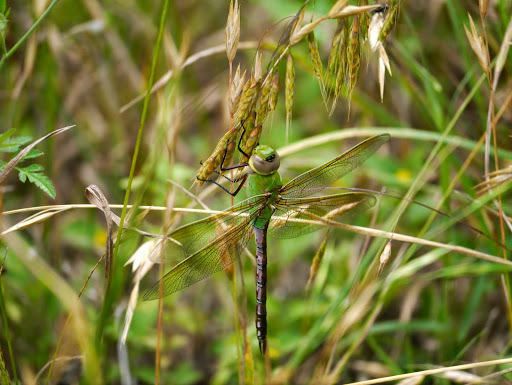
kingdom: Animalia
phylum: Arthropoda
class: Insecta
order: Odonata
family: Aeshnidae
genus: Anax
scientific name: Anax junius
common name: Common green darner
